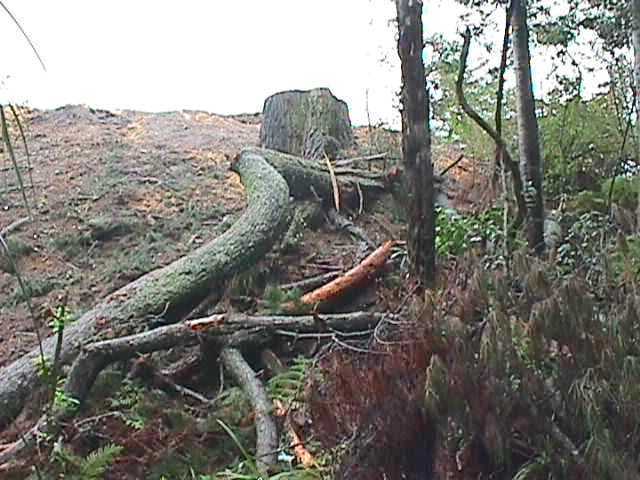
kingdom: Plantae
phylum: Tracheophyta
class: Pinopsida
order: Pinales
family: Pinaceae
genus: Pinus
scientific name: Pinus radiata
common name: Monterey pine
